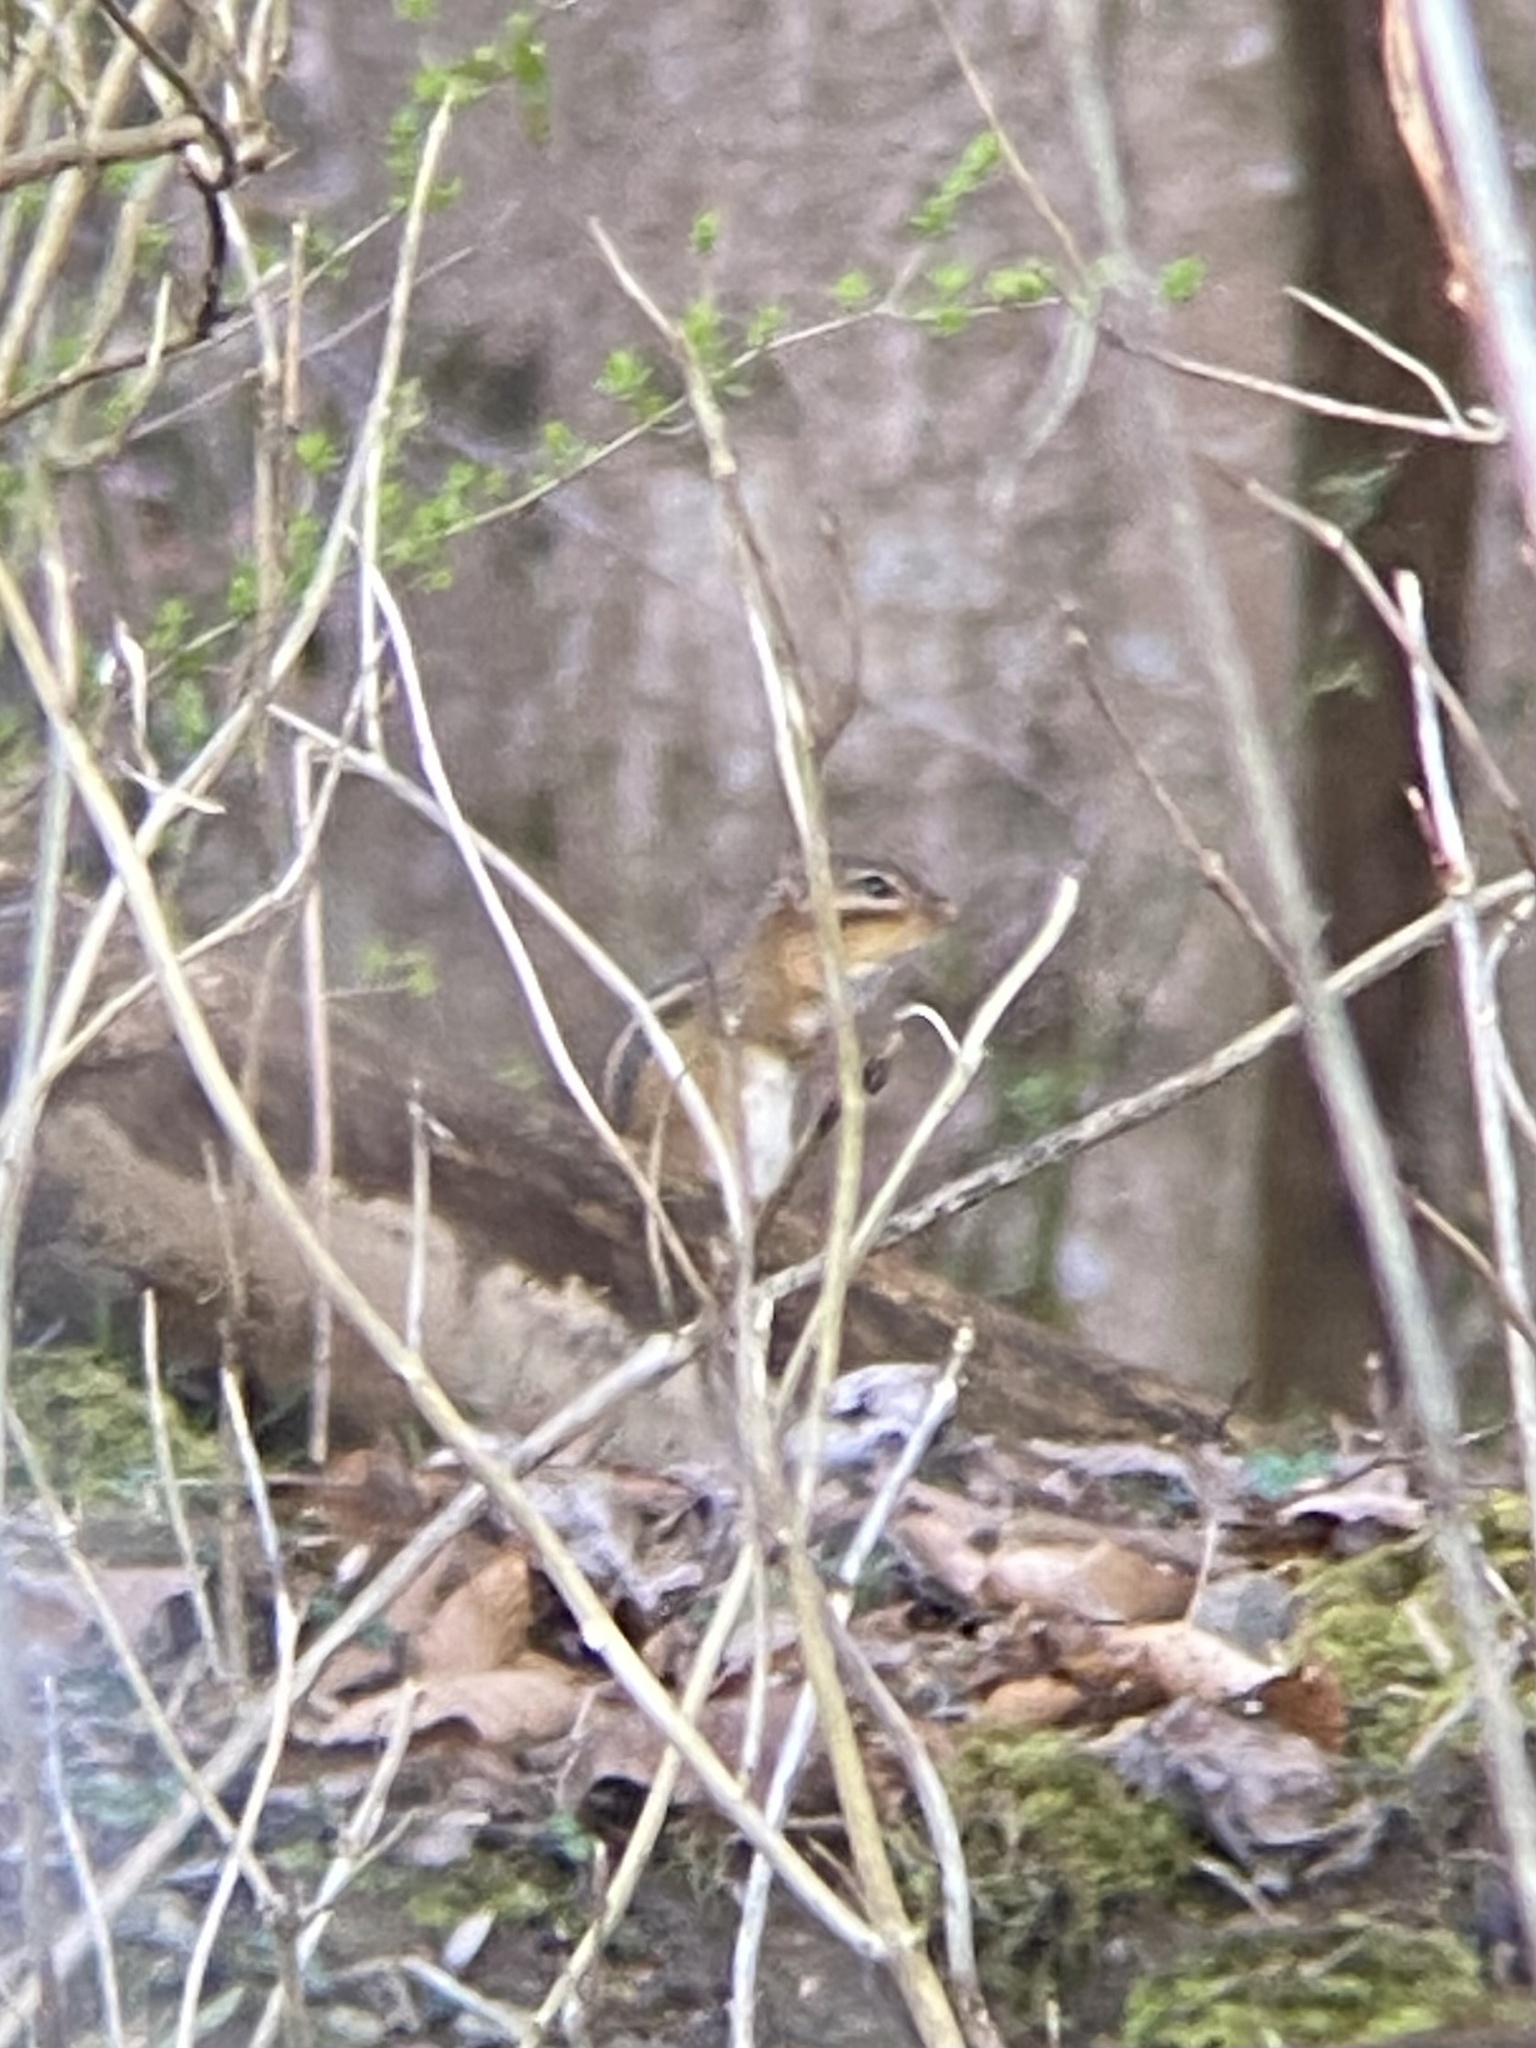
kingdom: Animalia
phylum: Chordata
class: Mammalia
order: Rodentia
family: Sciuridae
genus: Tamias
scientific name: Tamias striatus
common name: Eastern chipmunk
